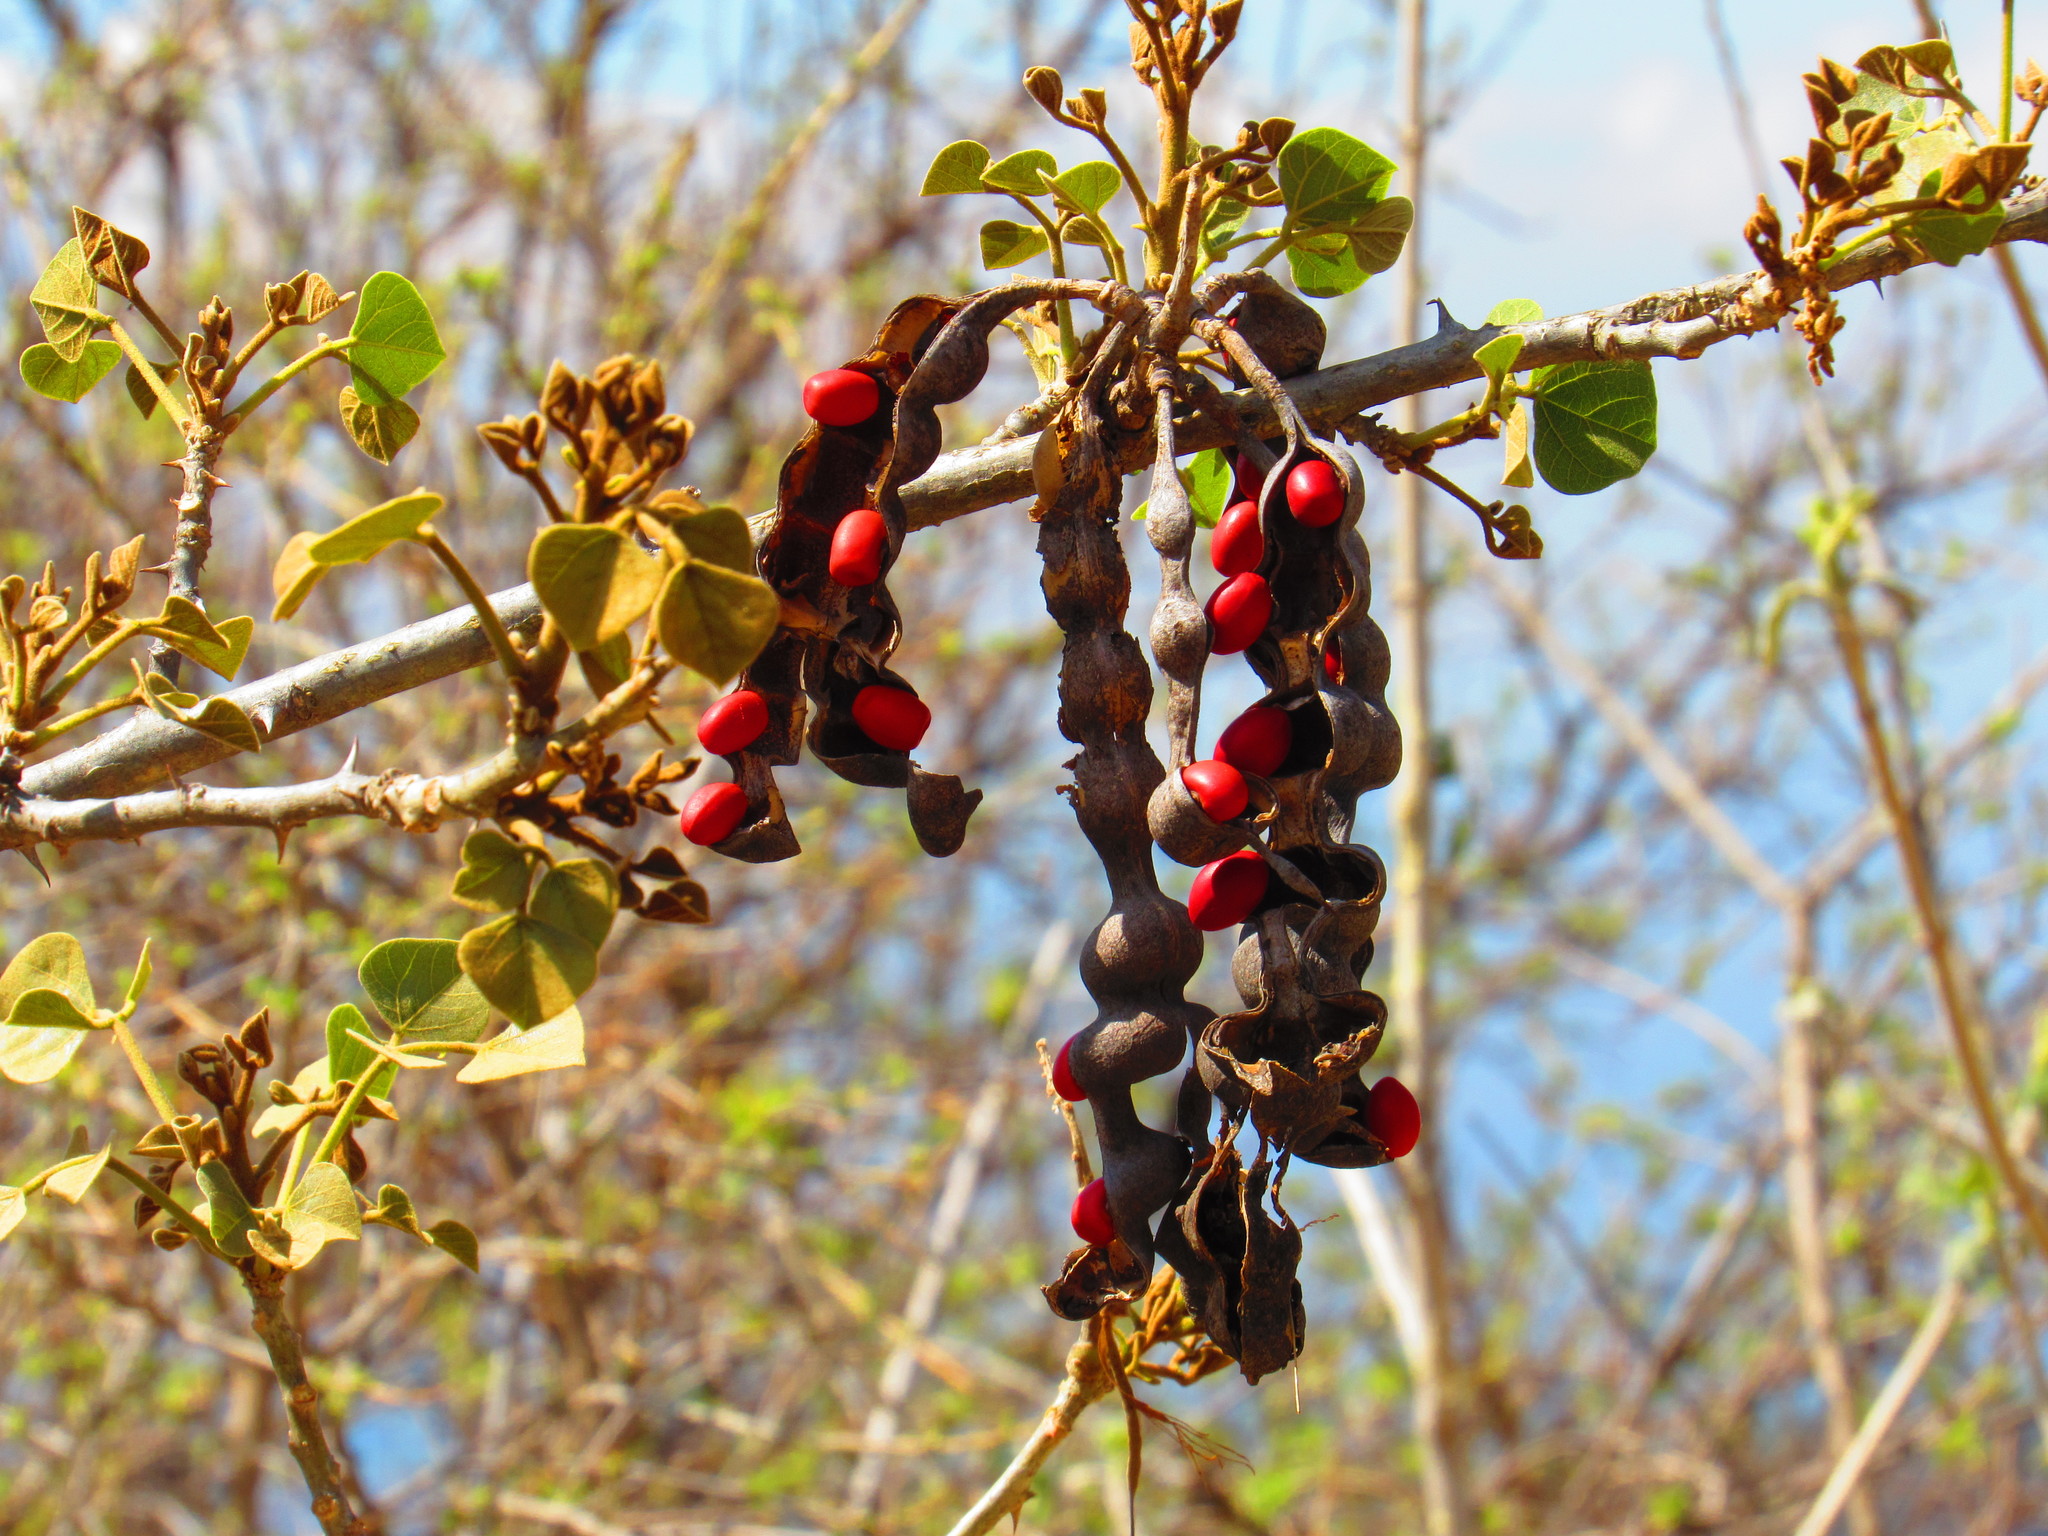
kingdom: Plantae
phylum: Tracheophyta
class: Magnoliopsida
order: Fabales
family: Fabaceae
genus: Erythrina
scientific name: Erythrina americana
